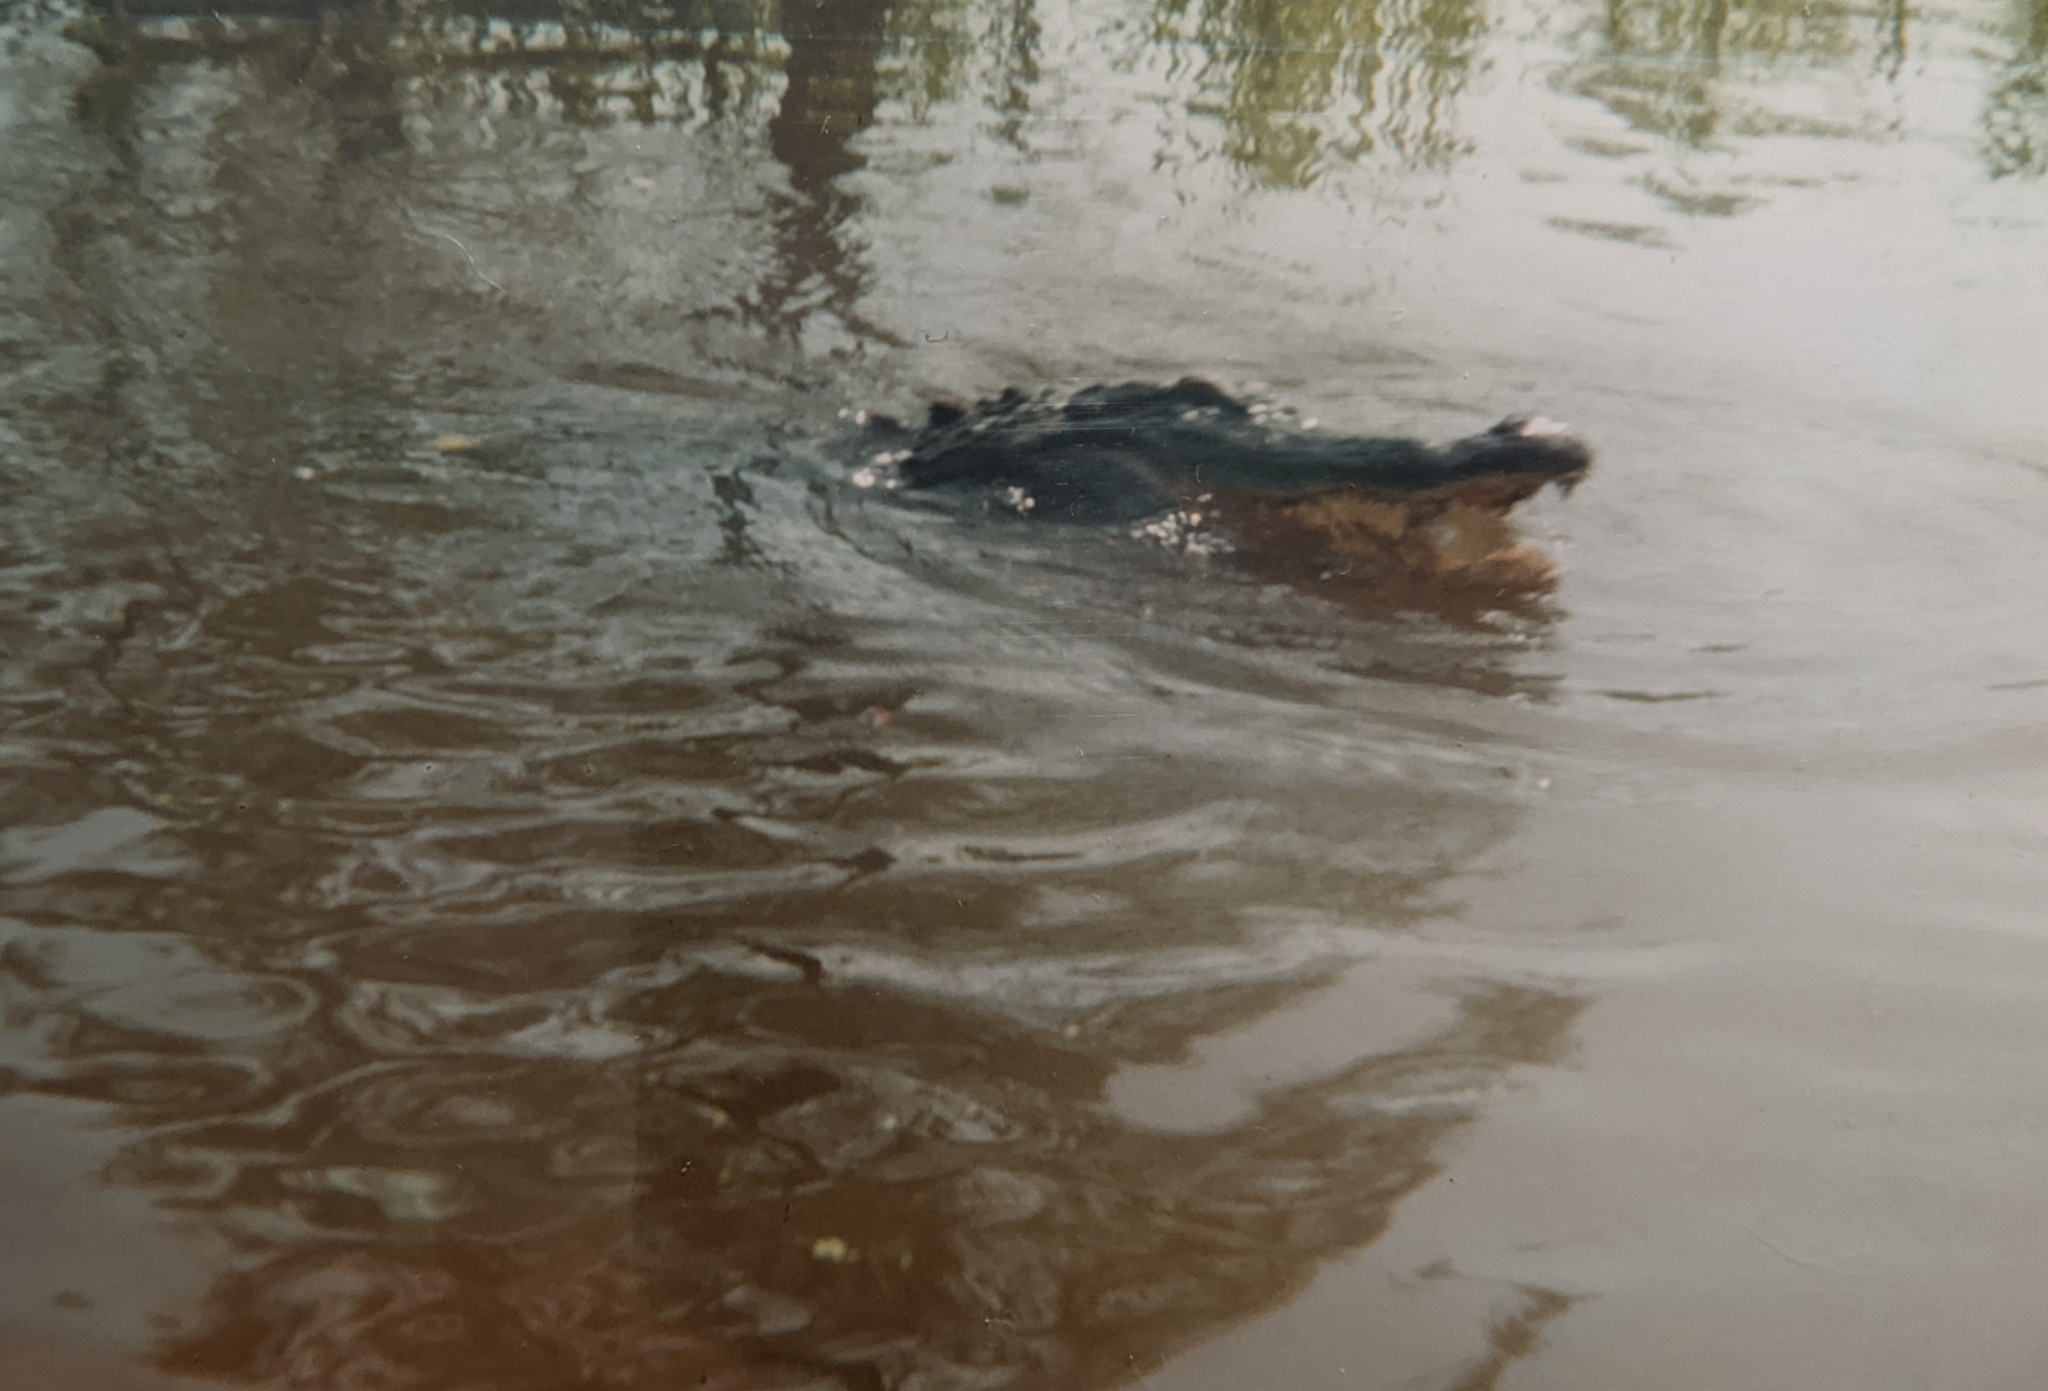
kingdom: Animalia
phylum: Chordata
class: Crocodylia
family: Alligatoridae
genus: Alligator
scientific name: Alligator mississippiensis
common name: American alligator
